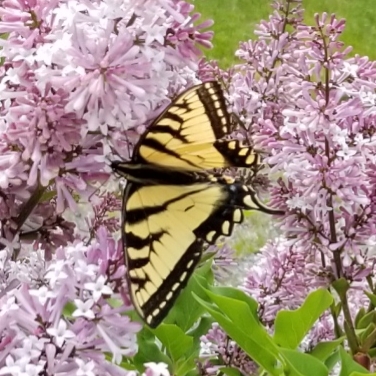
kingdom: Animalia
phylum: Arthropoda
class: Insecta
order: Lepidoptera
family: Papilionidae
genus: Papilio
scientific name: Papilio canadensis
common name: Canadian tiger swallowtail
